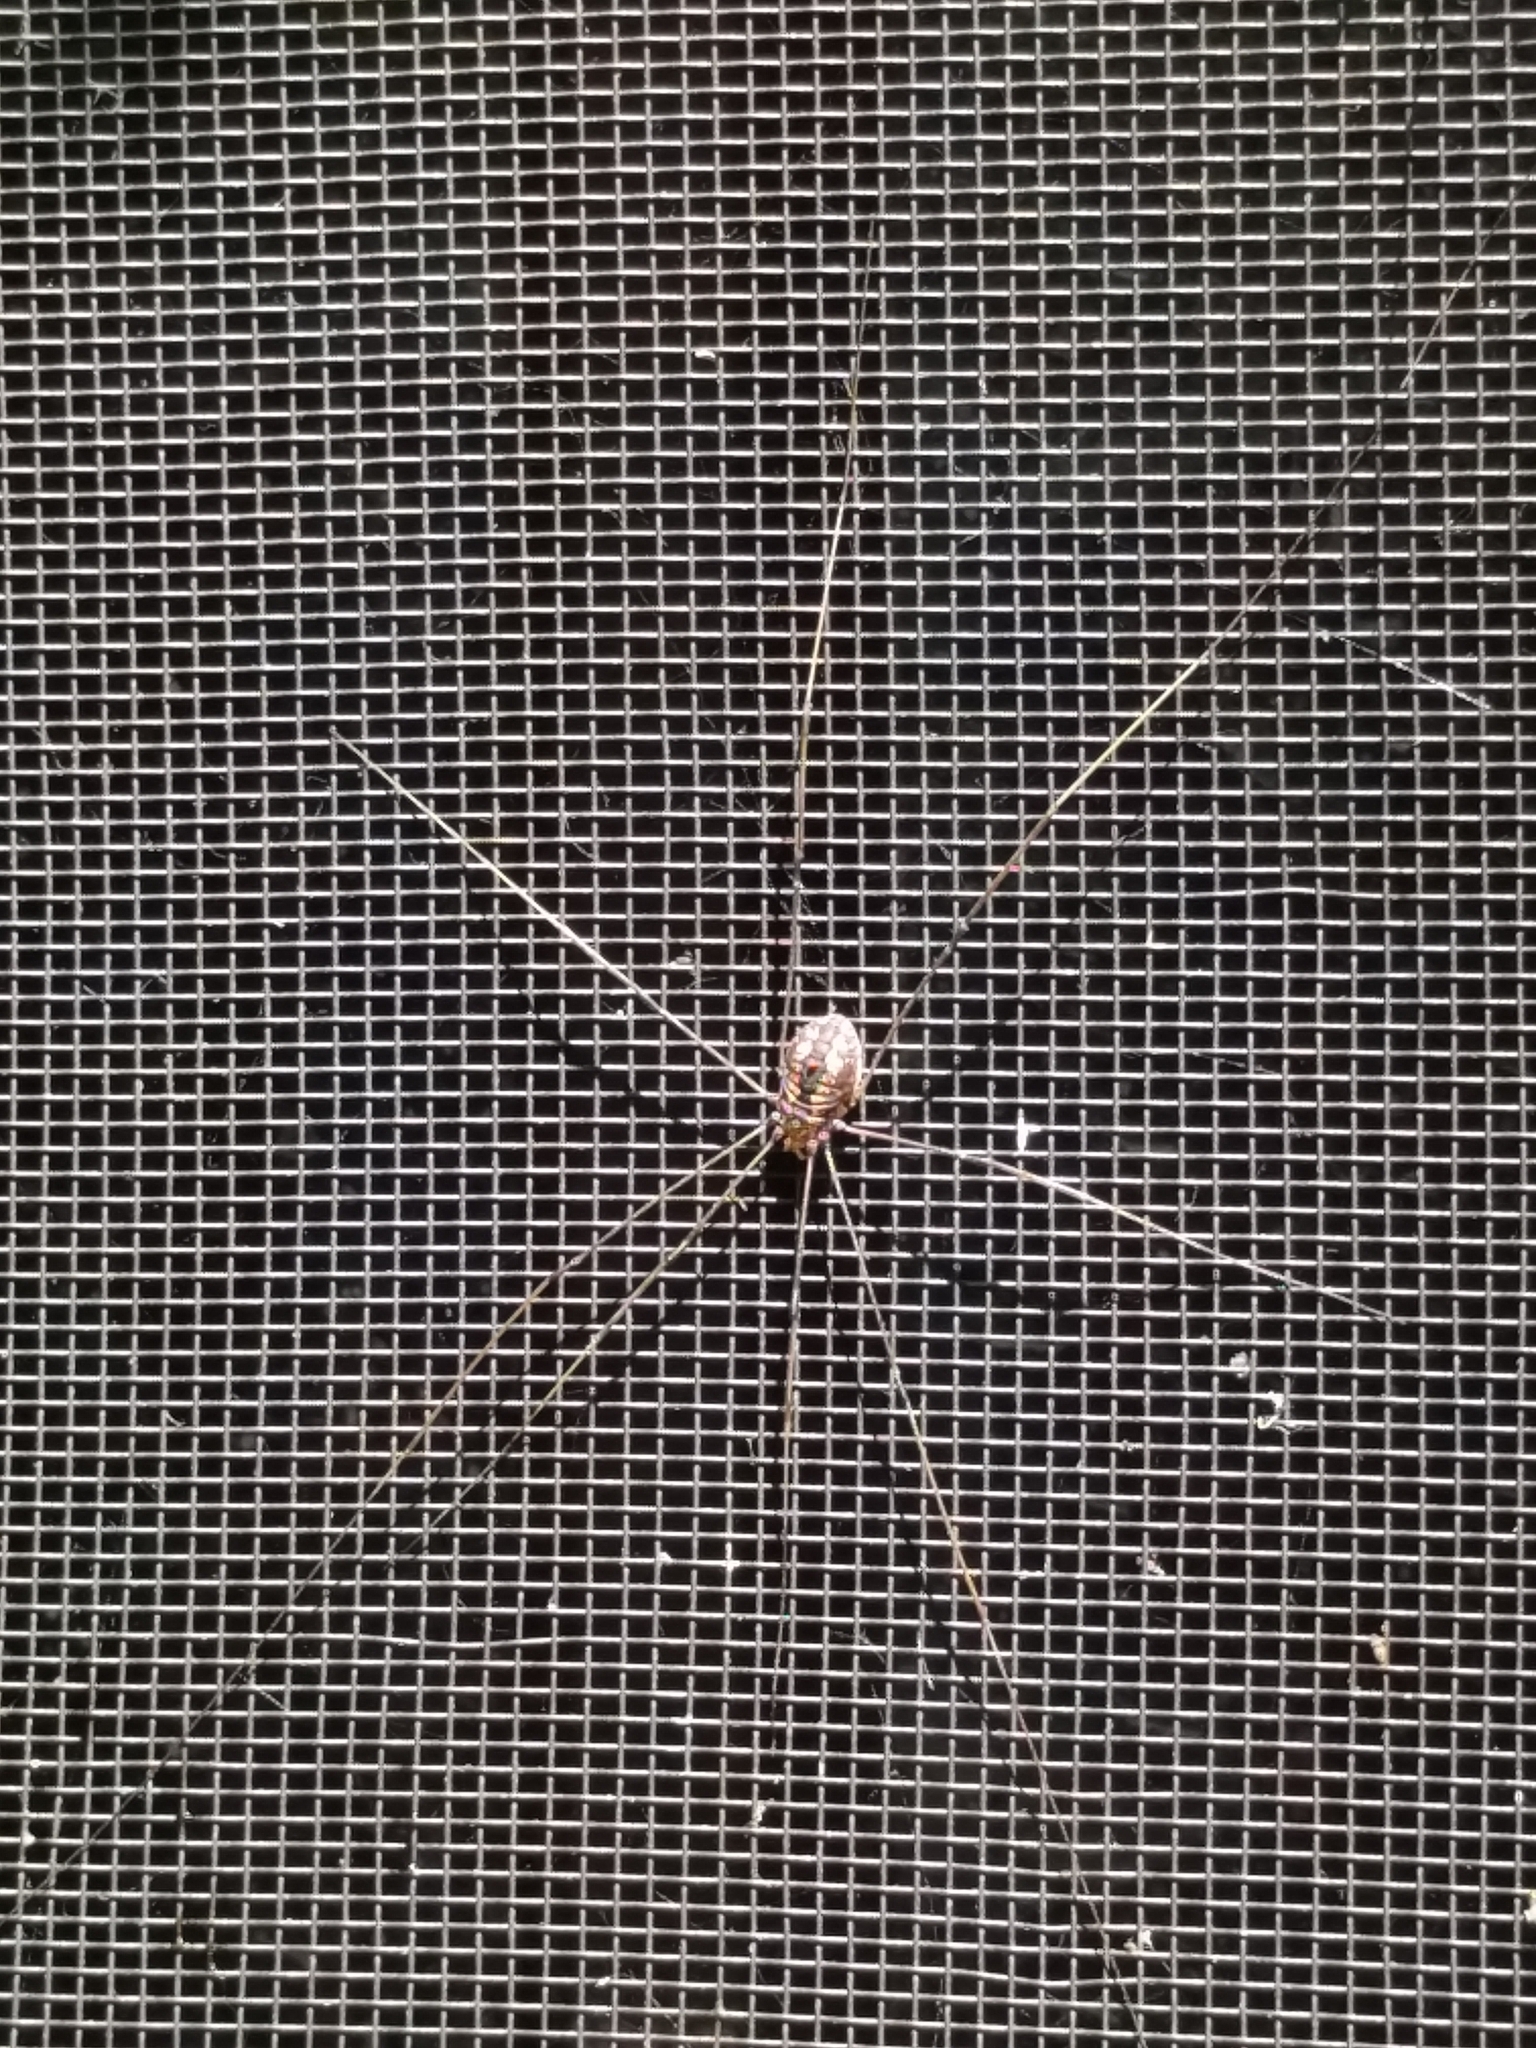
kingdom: Animalia
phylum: Arthropoda
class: Arachnida
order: Opiliones
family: Sclerosomatidae
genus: Leiobunum
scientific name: Leiobunum vittatum
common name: Eastern harvestman
